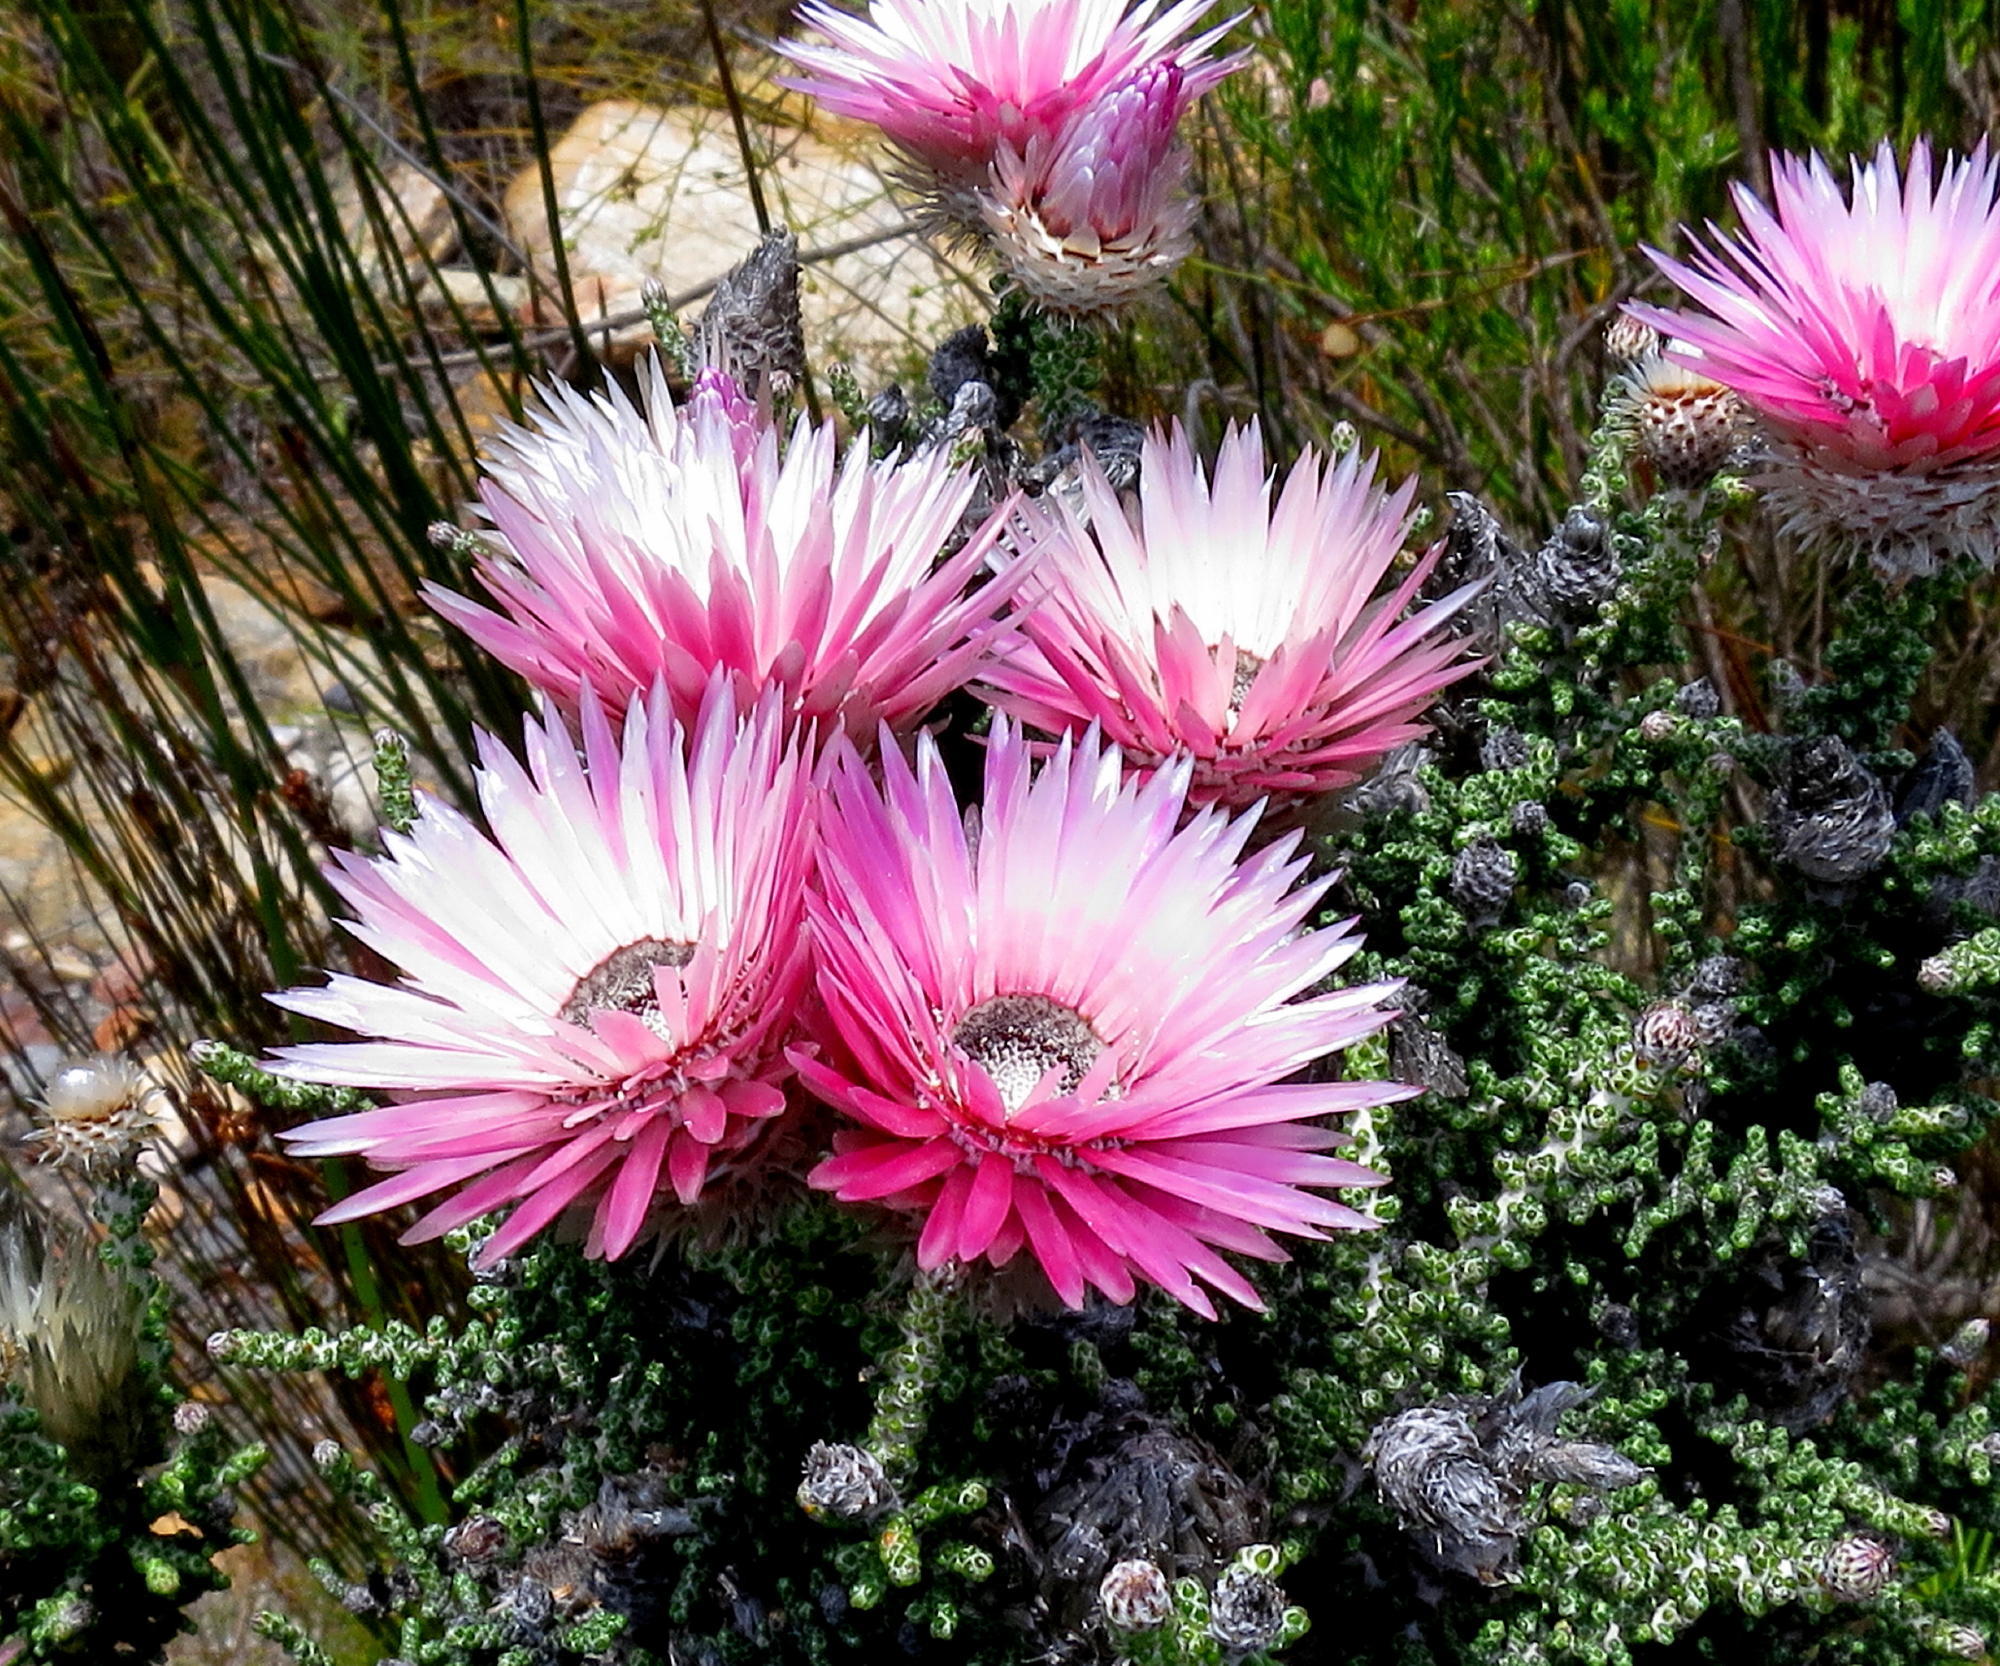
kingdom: Plantae
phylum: Tracheophyta
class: Magnoliopsida
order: Asterales
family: Asteraceae
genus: Phaenocoma
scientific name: Phaenocoma prolifera
